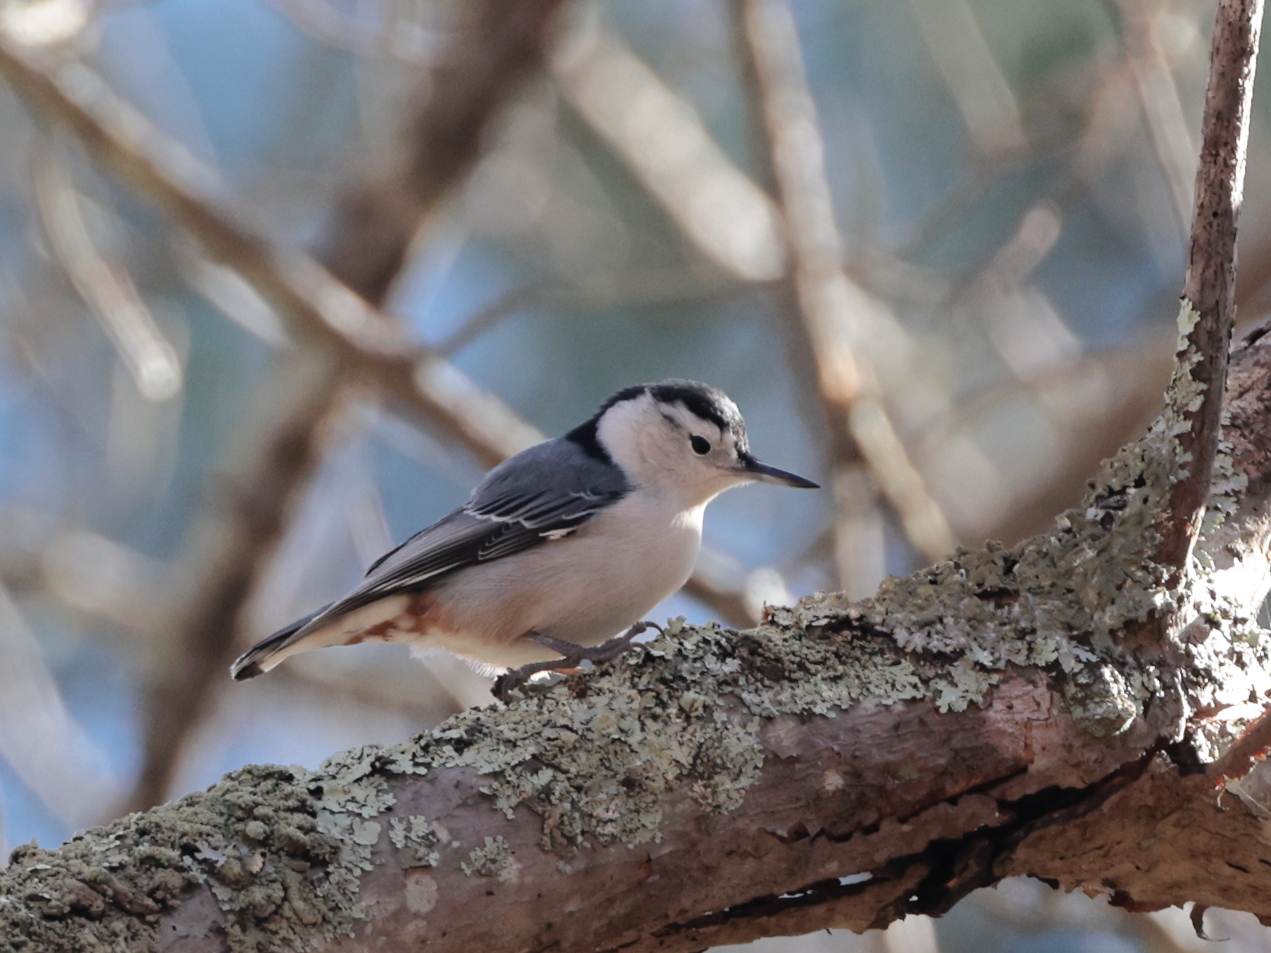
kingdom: Animalia
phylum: Chordata
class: Aves
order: Passeriformes
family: Sittidae
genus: Sitta
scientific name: Sitta carolinensis
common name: White-breasted nuthatch
